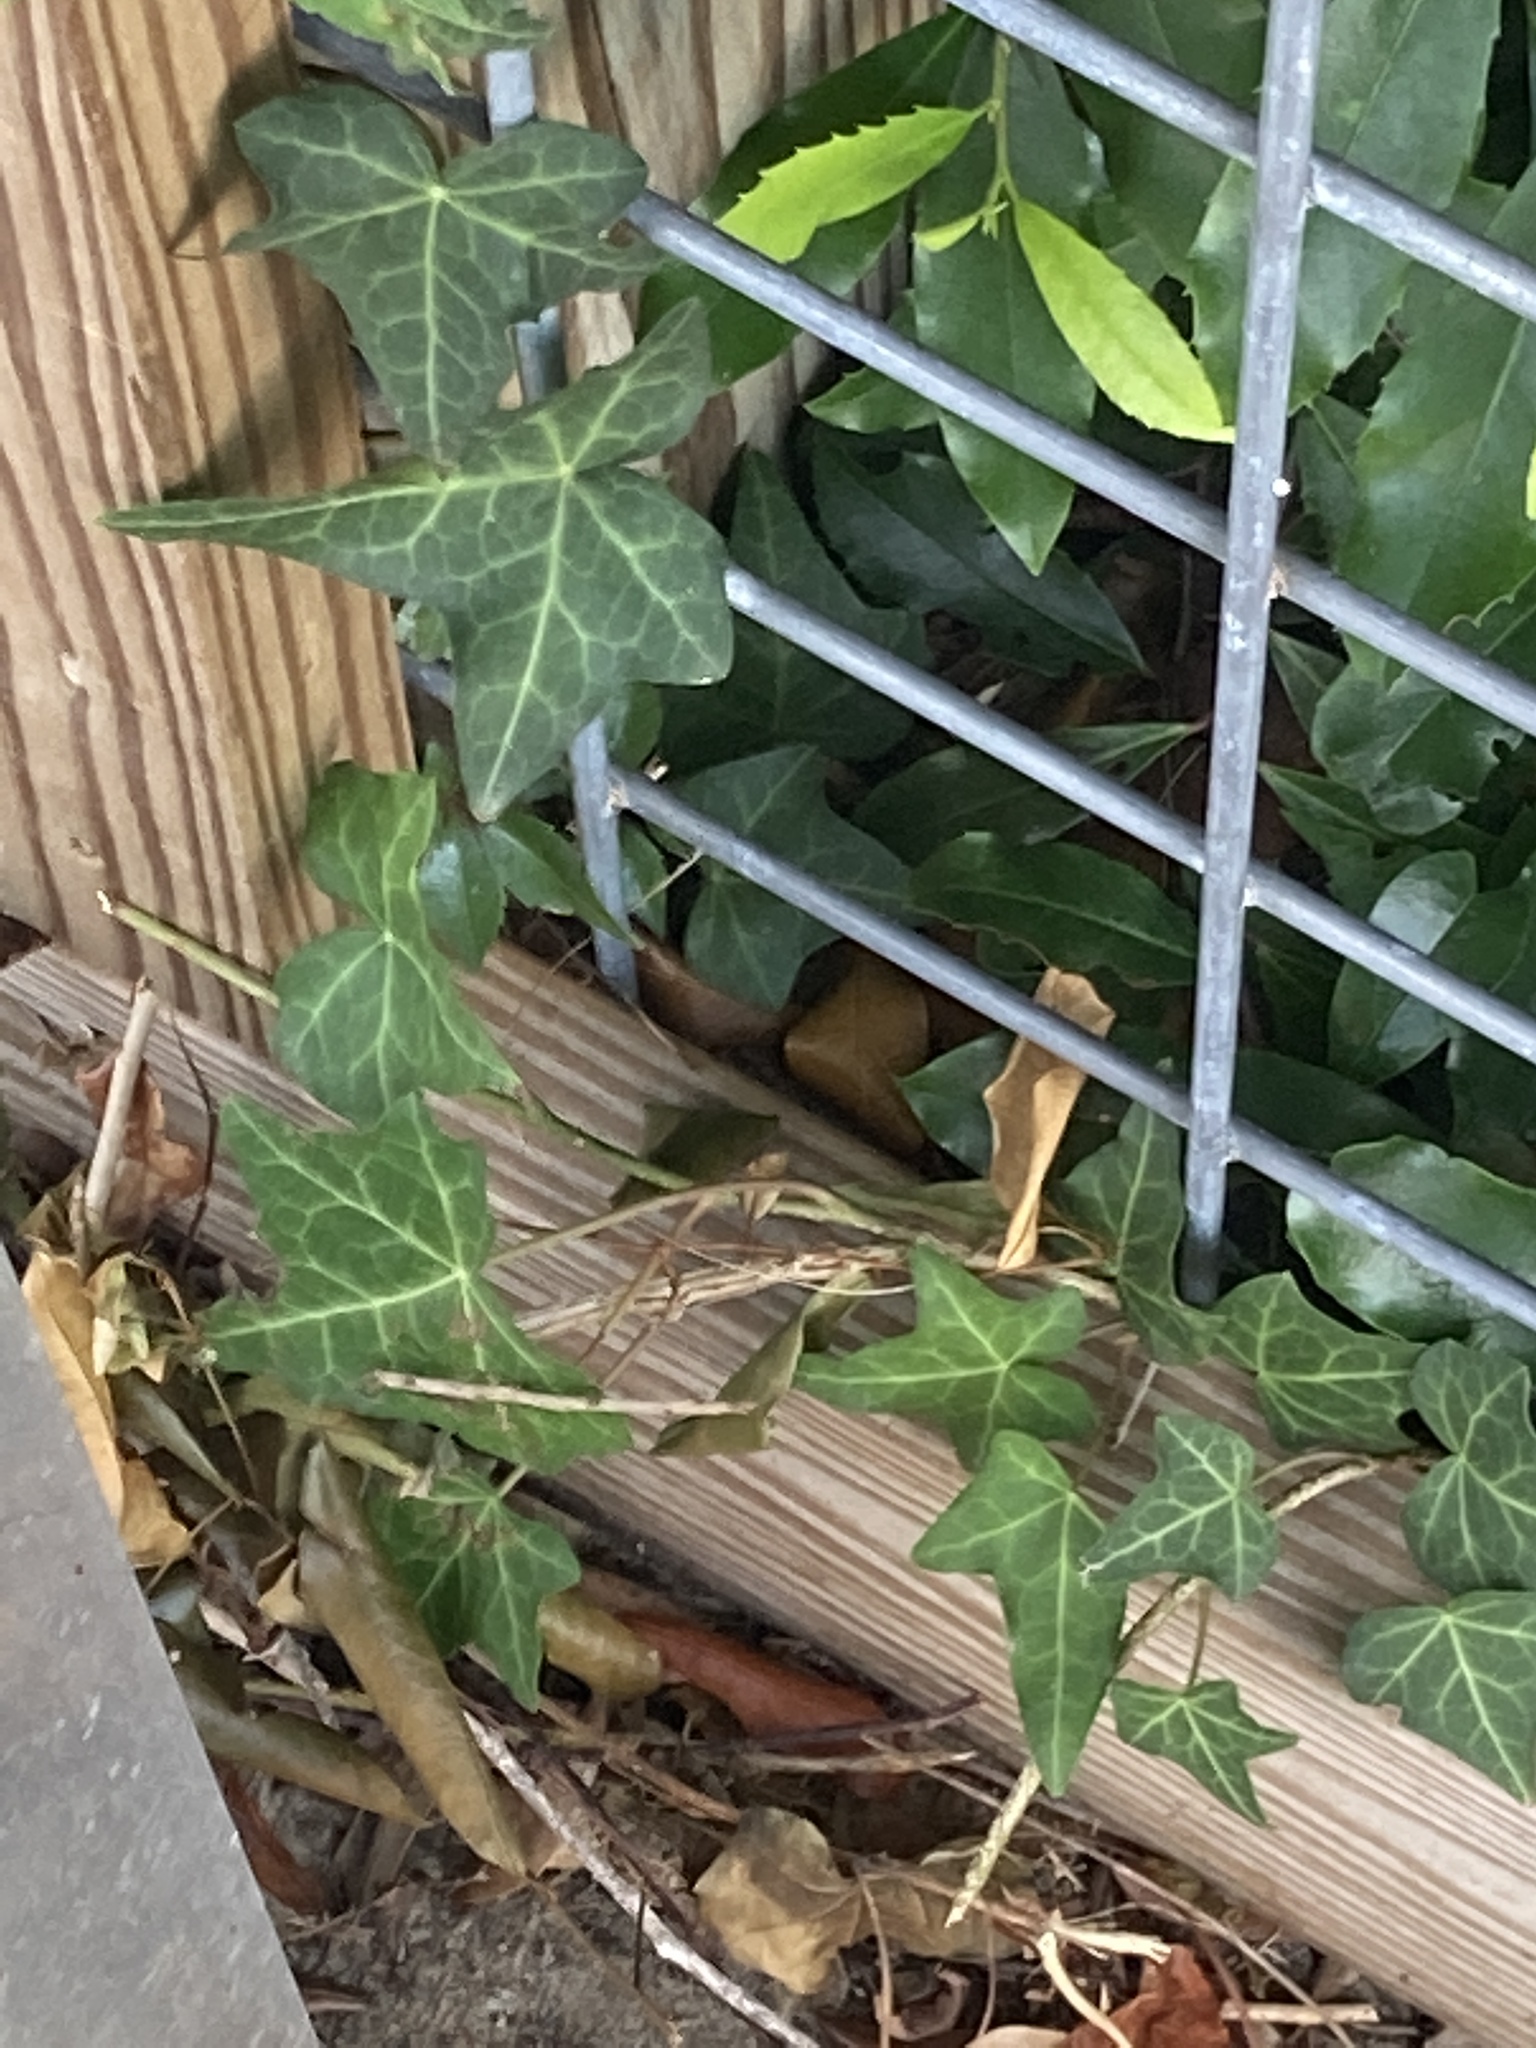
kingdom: Plantae
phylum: Tracheophyta
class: Magnoliopsida
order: Apiales
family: Araliaceae
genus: Hedera
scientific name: Hedera helix
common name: Ivy
